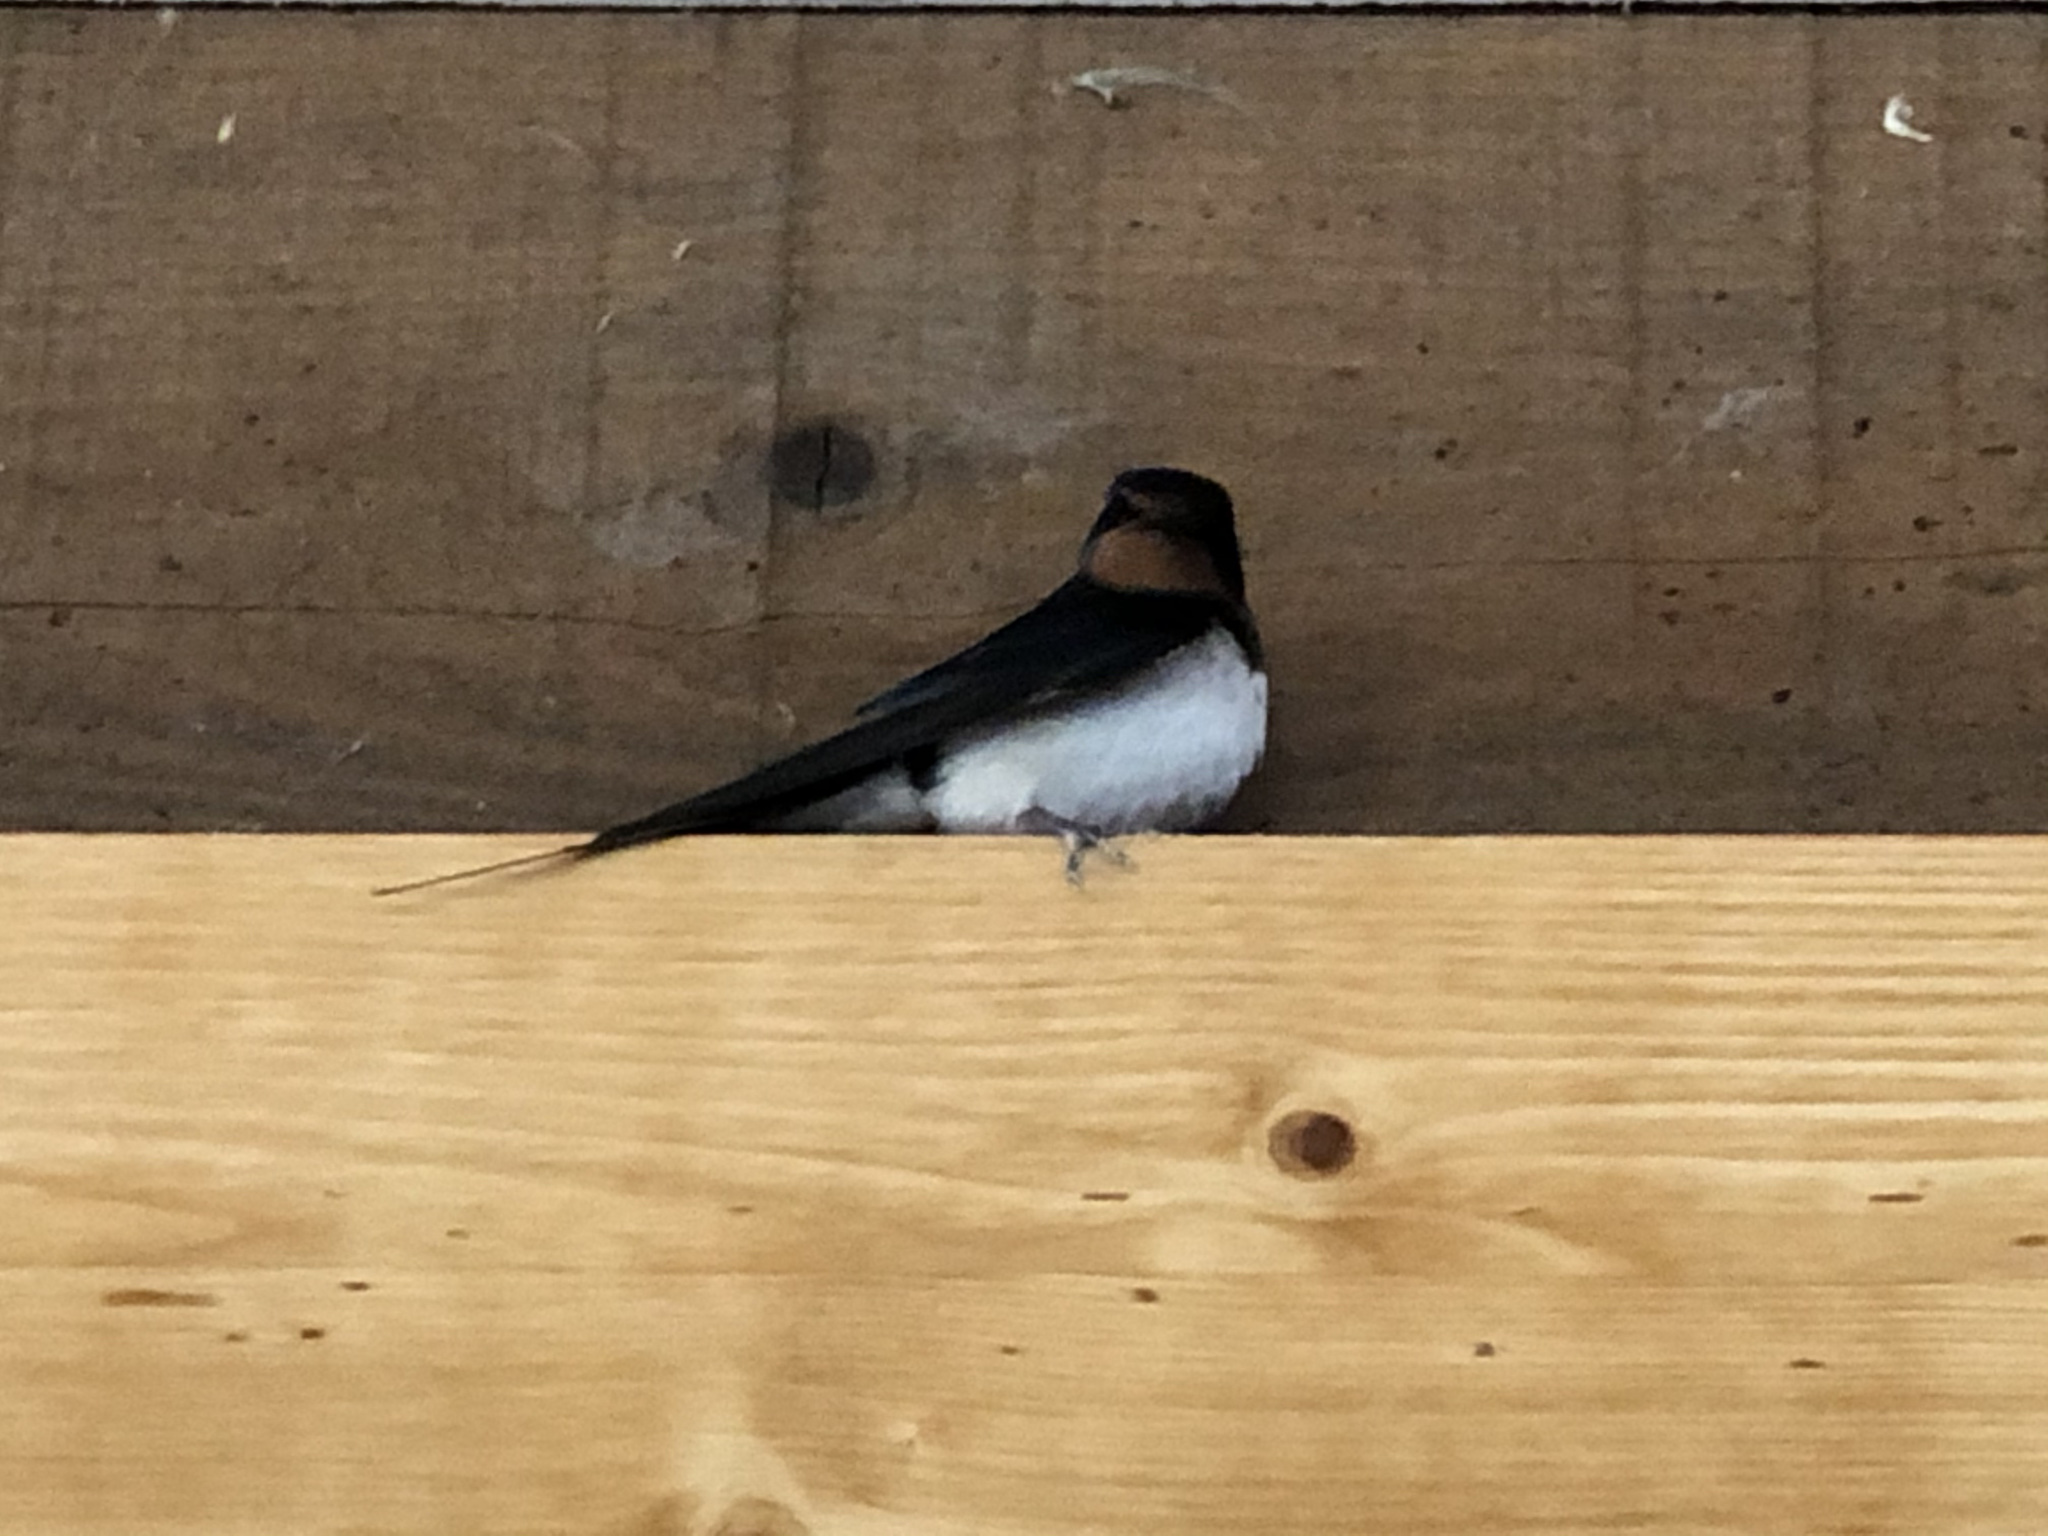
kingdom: Animalia
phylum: Chordata
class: Aves
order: Passeriformes
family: Hirundinidae
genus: Hirundo
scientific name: Hirundo rustica
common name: Barn swallow
